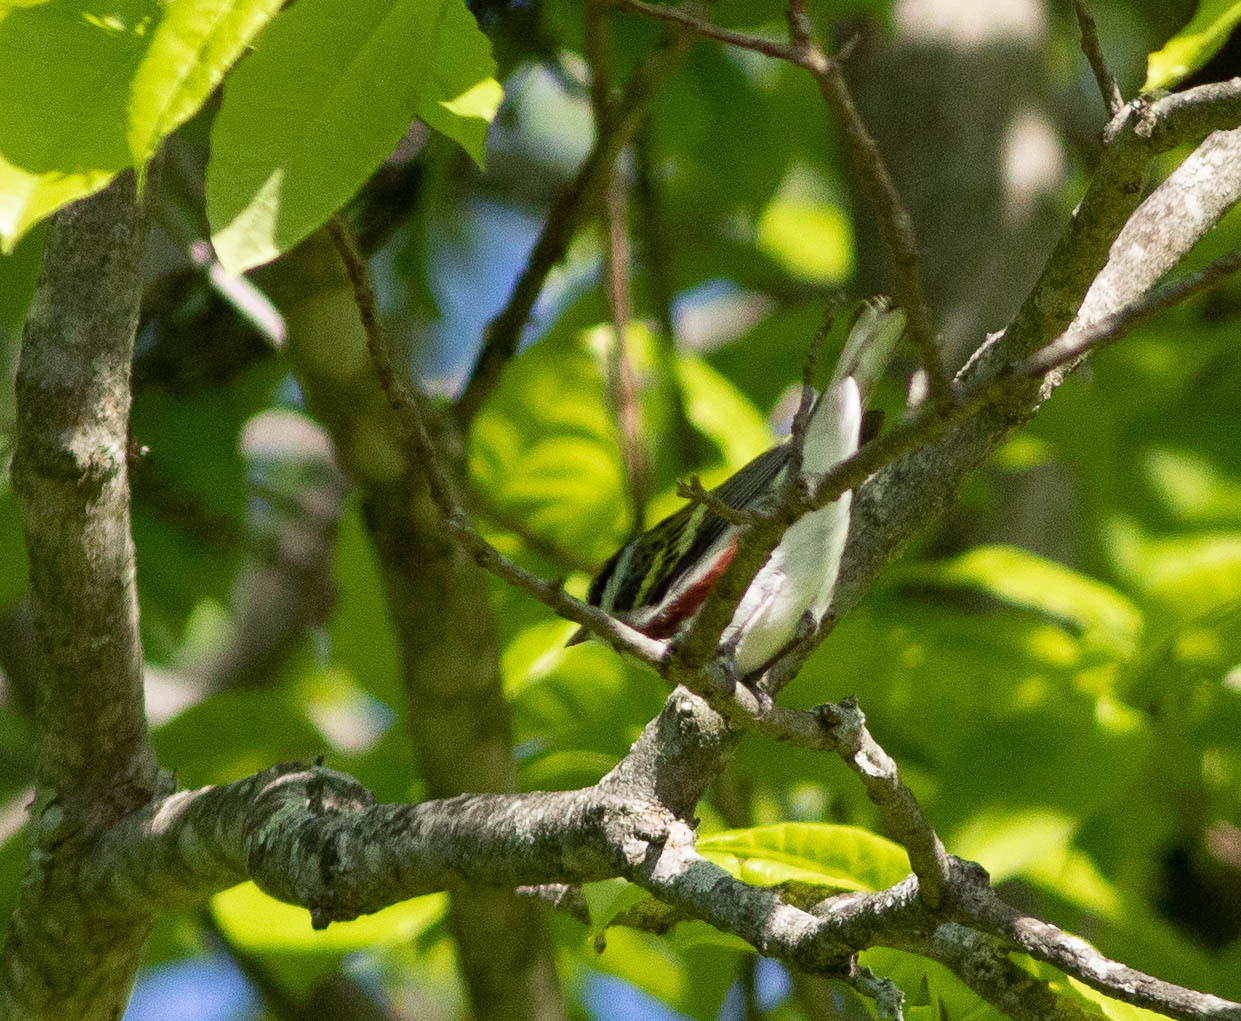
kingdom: Animalia
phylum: Chordata
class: Aves
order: Passeriformes
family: Parulidae
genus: Setophaga
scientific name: Setophaga pensylvanica
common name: Chestnut-sided warbler
